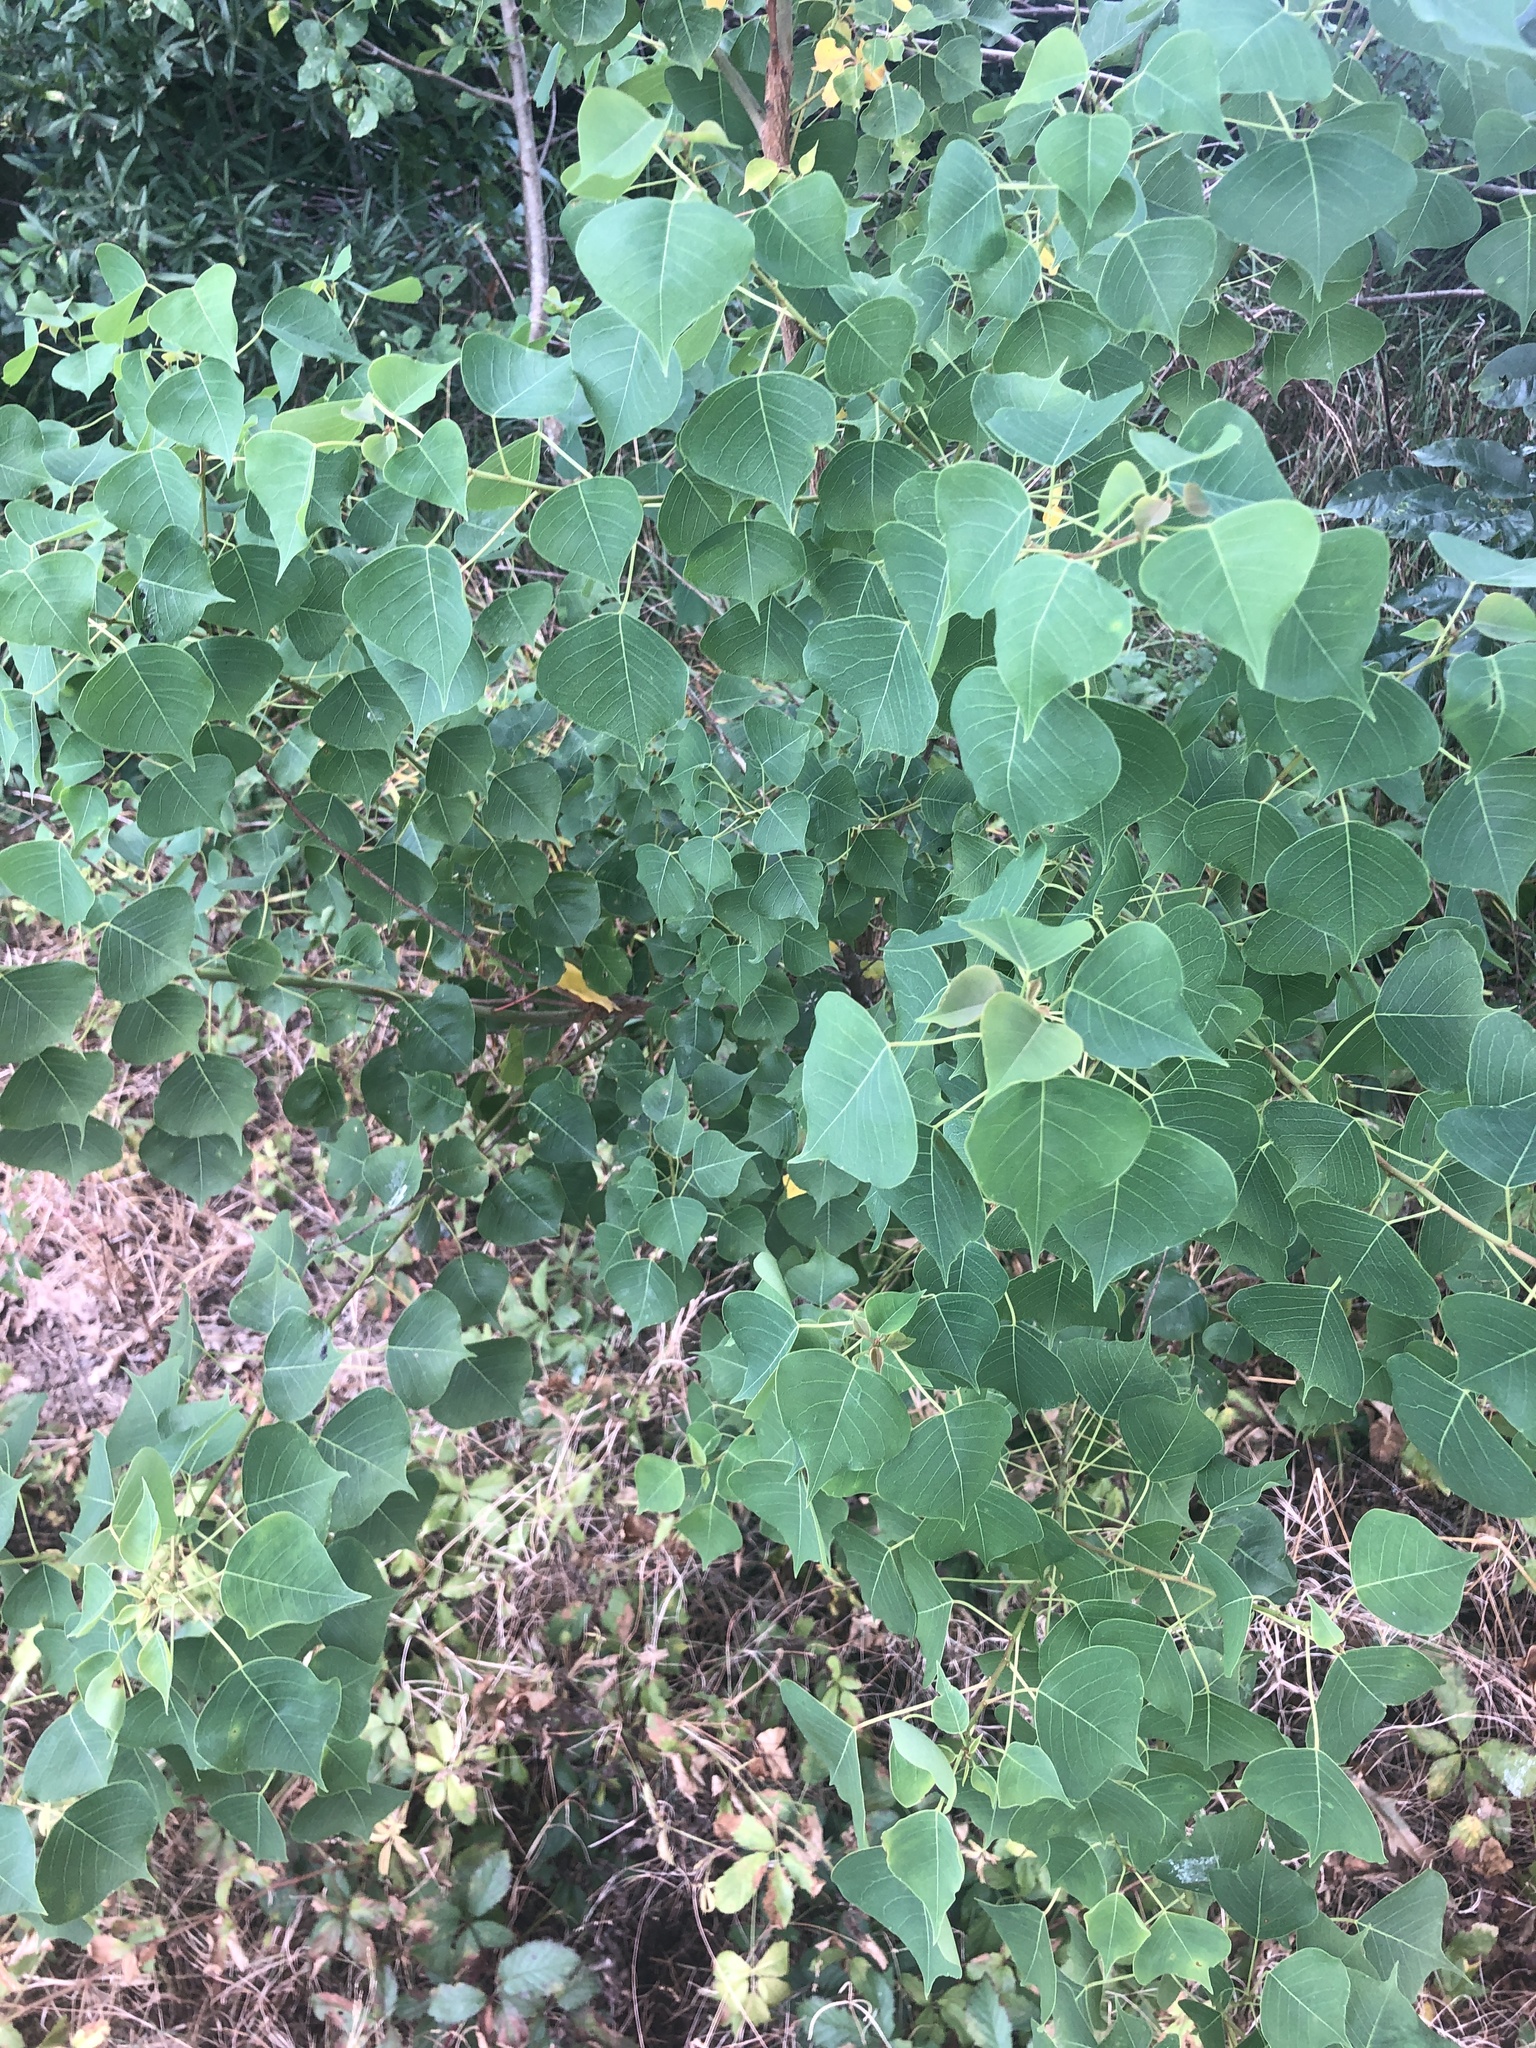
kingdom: Plantae
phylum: Tracheophyta
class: Magnoliopsida
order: Malpighiales
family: Euphorbiaceae
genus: Triadica
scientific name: Triadica sebifera
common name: Chinese tallow
